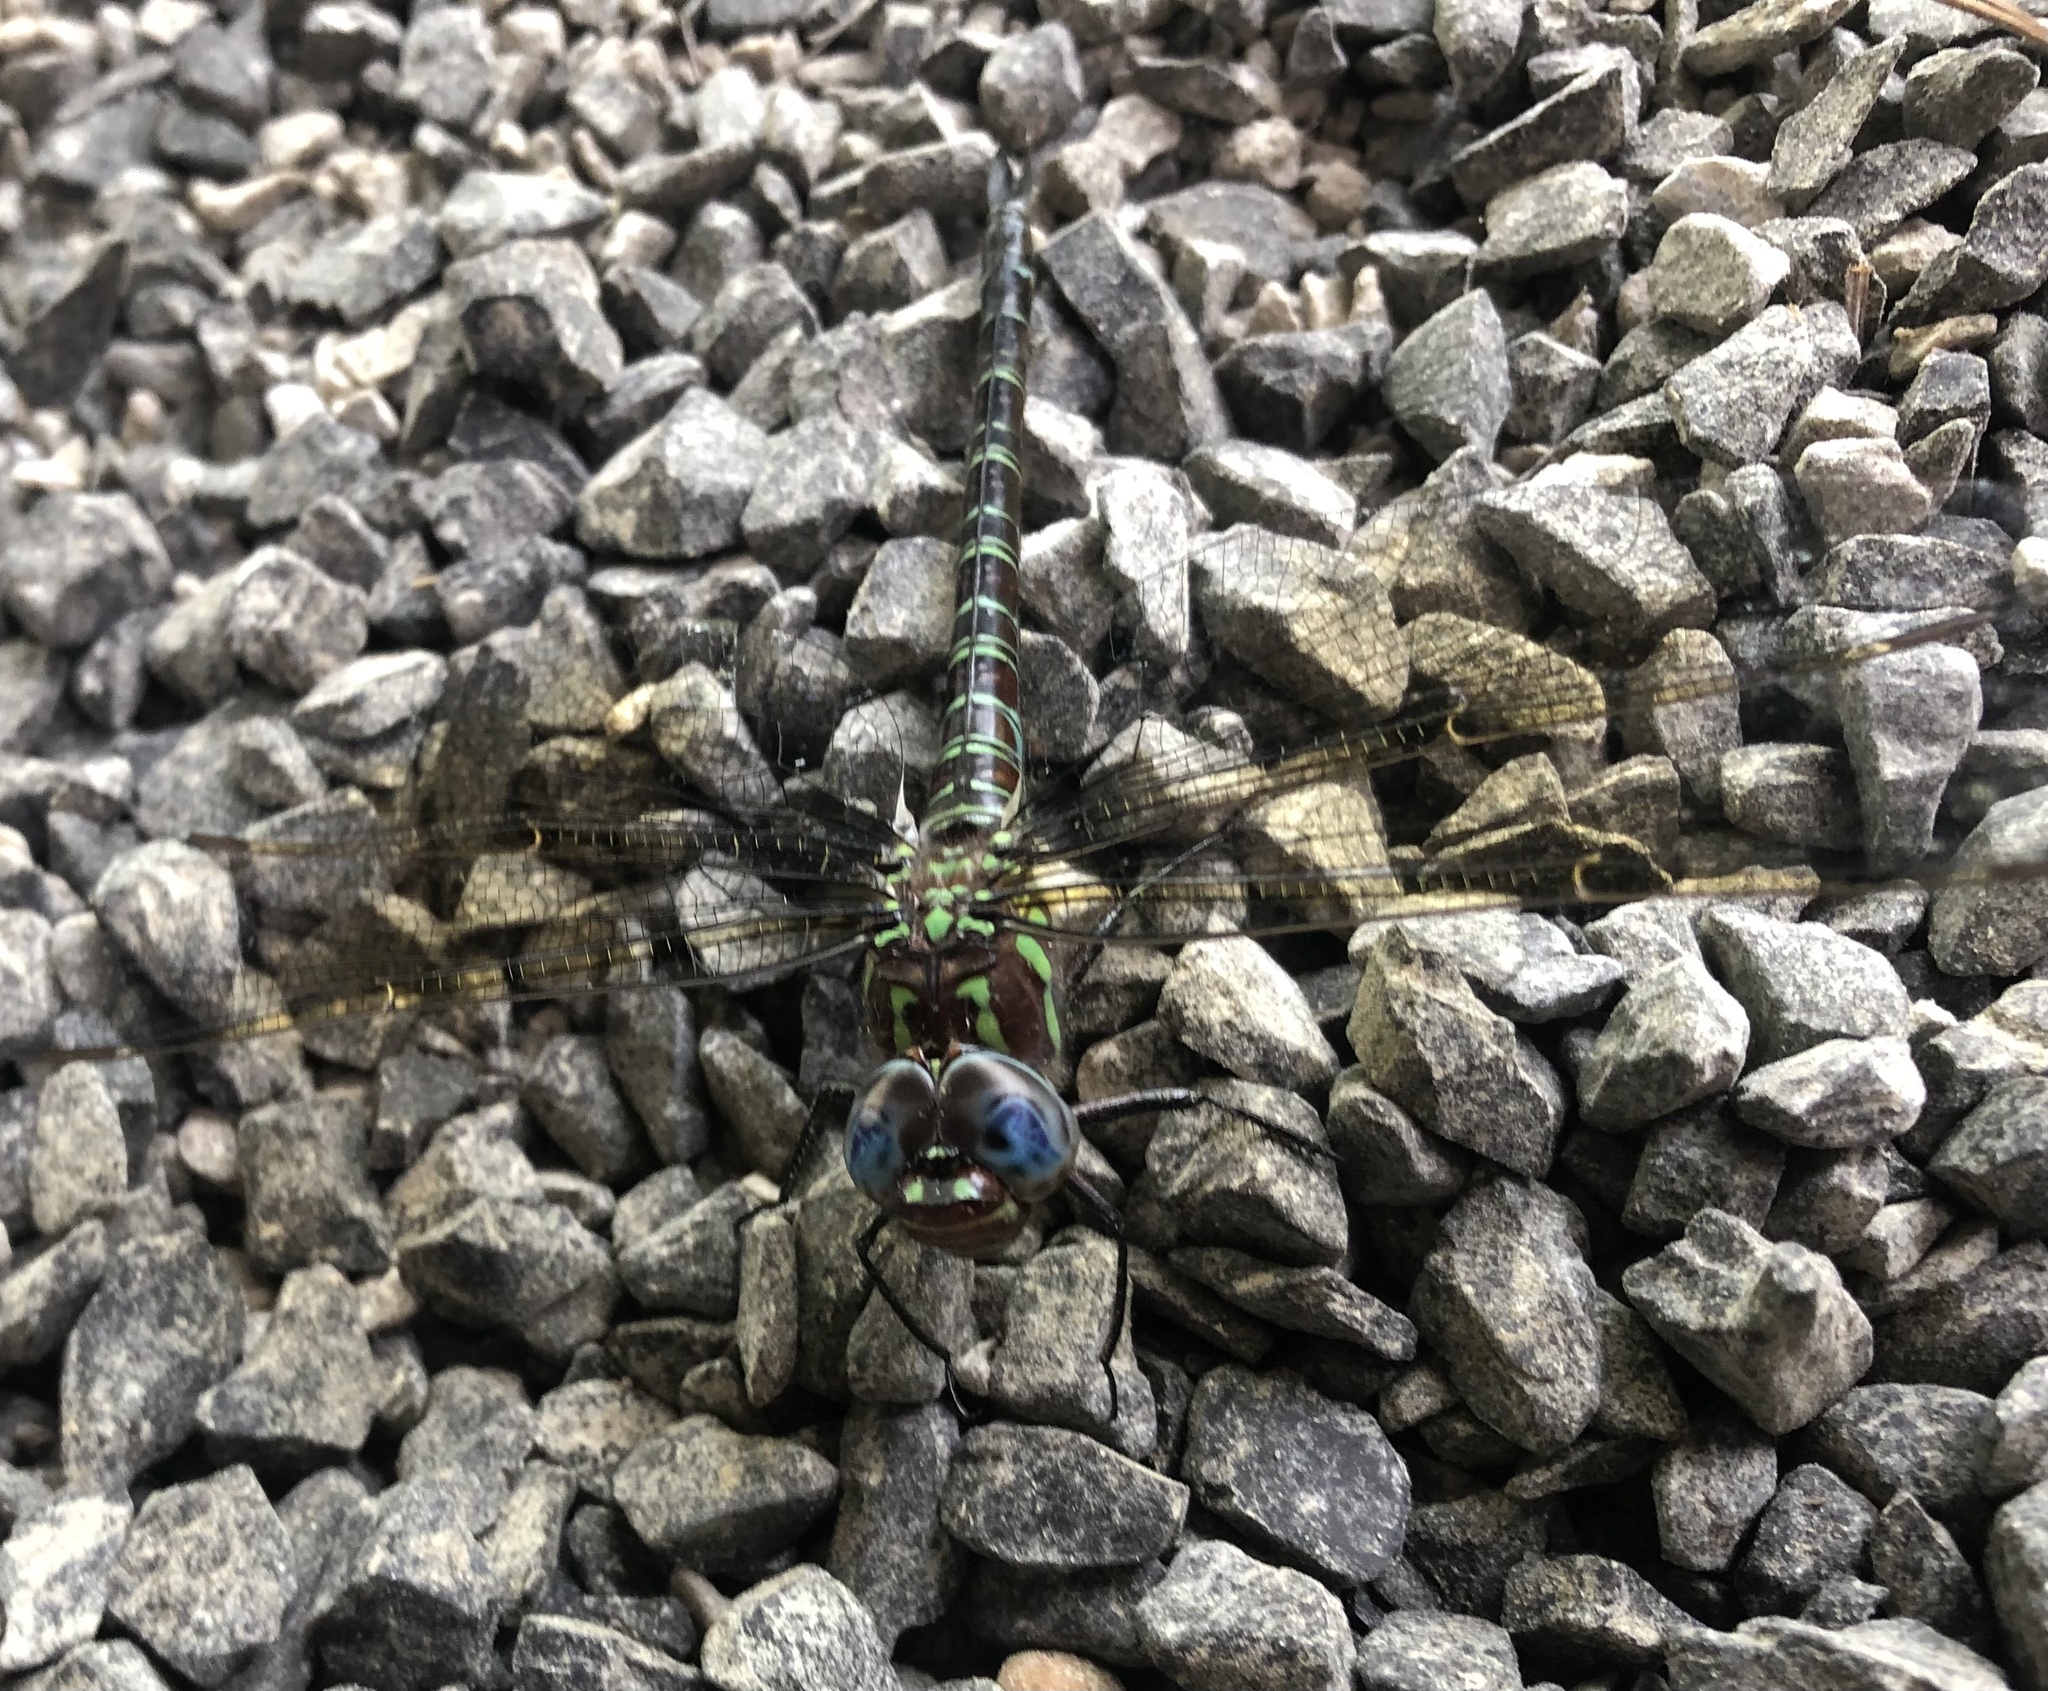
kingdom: Animalia
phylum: Arthropoda
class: Insecta
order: Odonata
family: Aeshnidae
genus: Epiaeschna
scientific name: Epiaeschna heros
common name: Swamp darner
